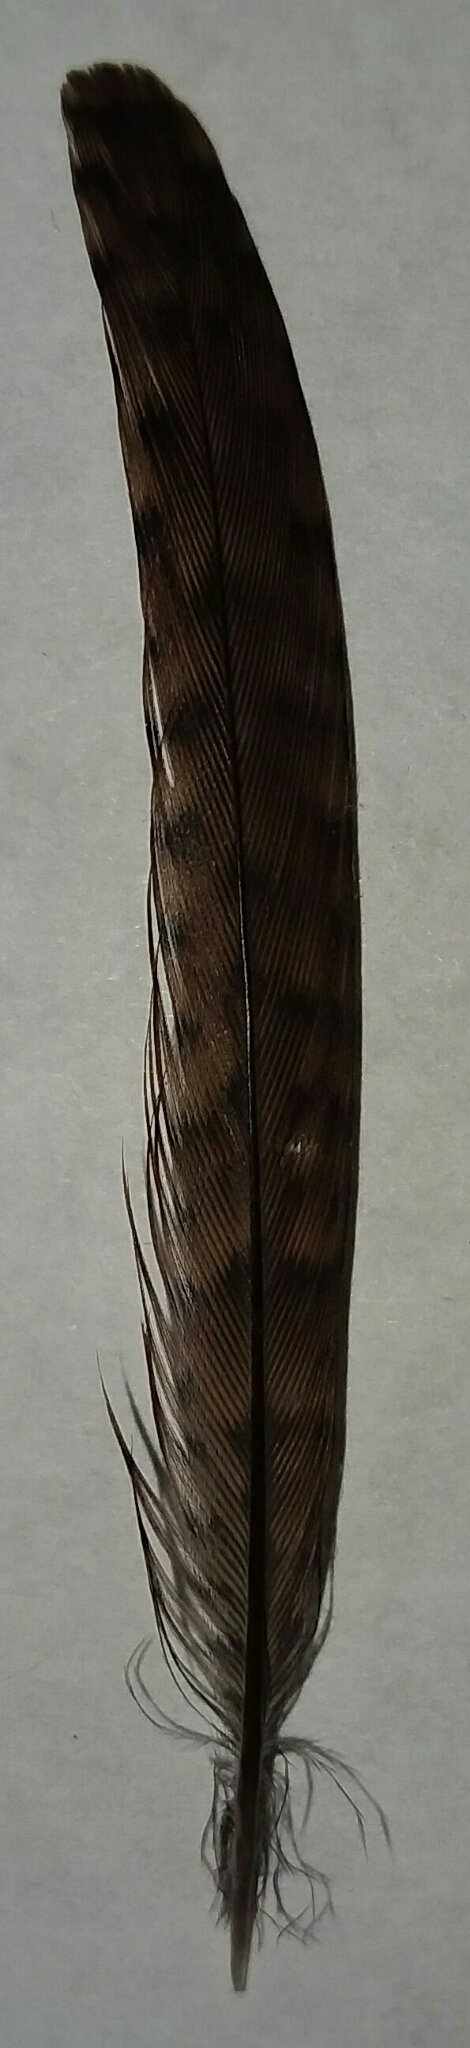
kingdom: Animalia
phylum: Chordata
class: Aves
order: Passeriformes
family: Troglodytidae
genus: Thryothorus
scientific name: Thryothorus ludovicianus
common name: Carolina wren
